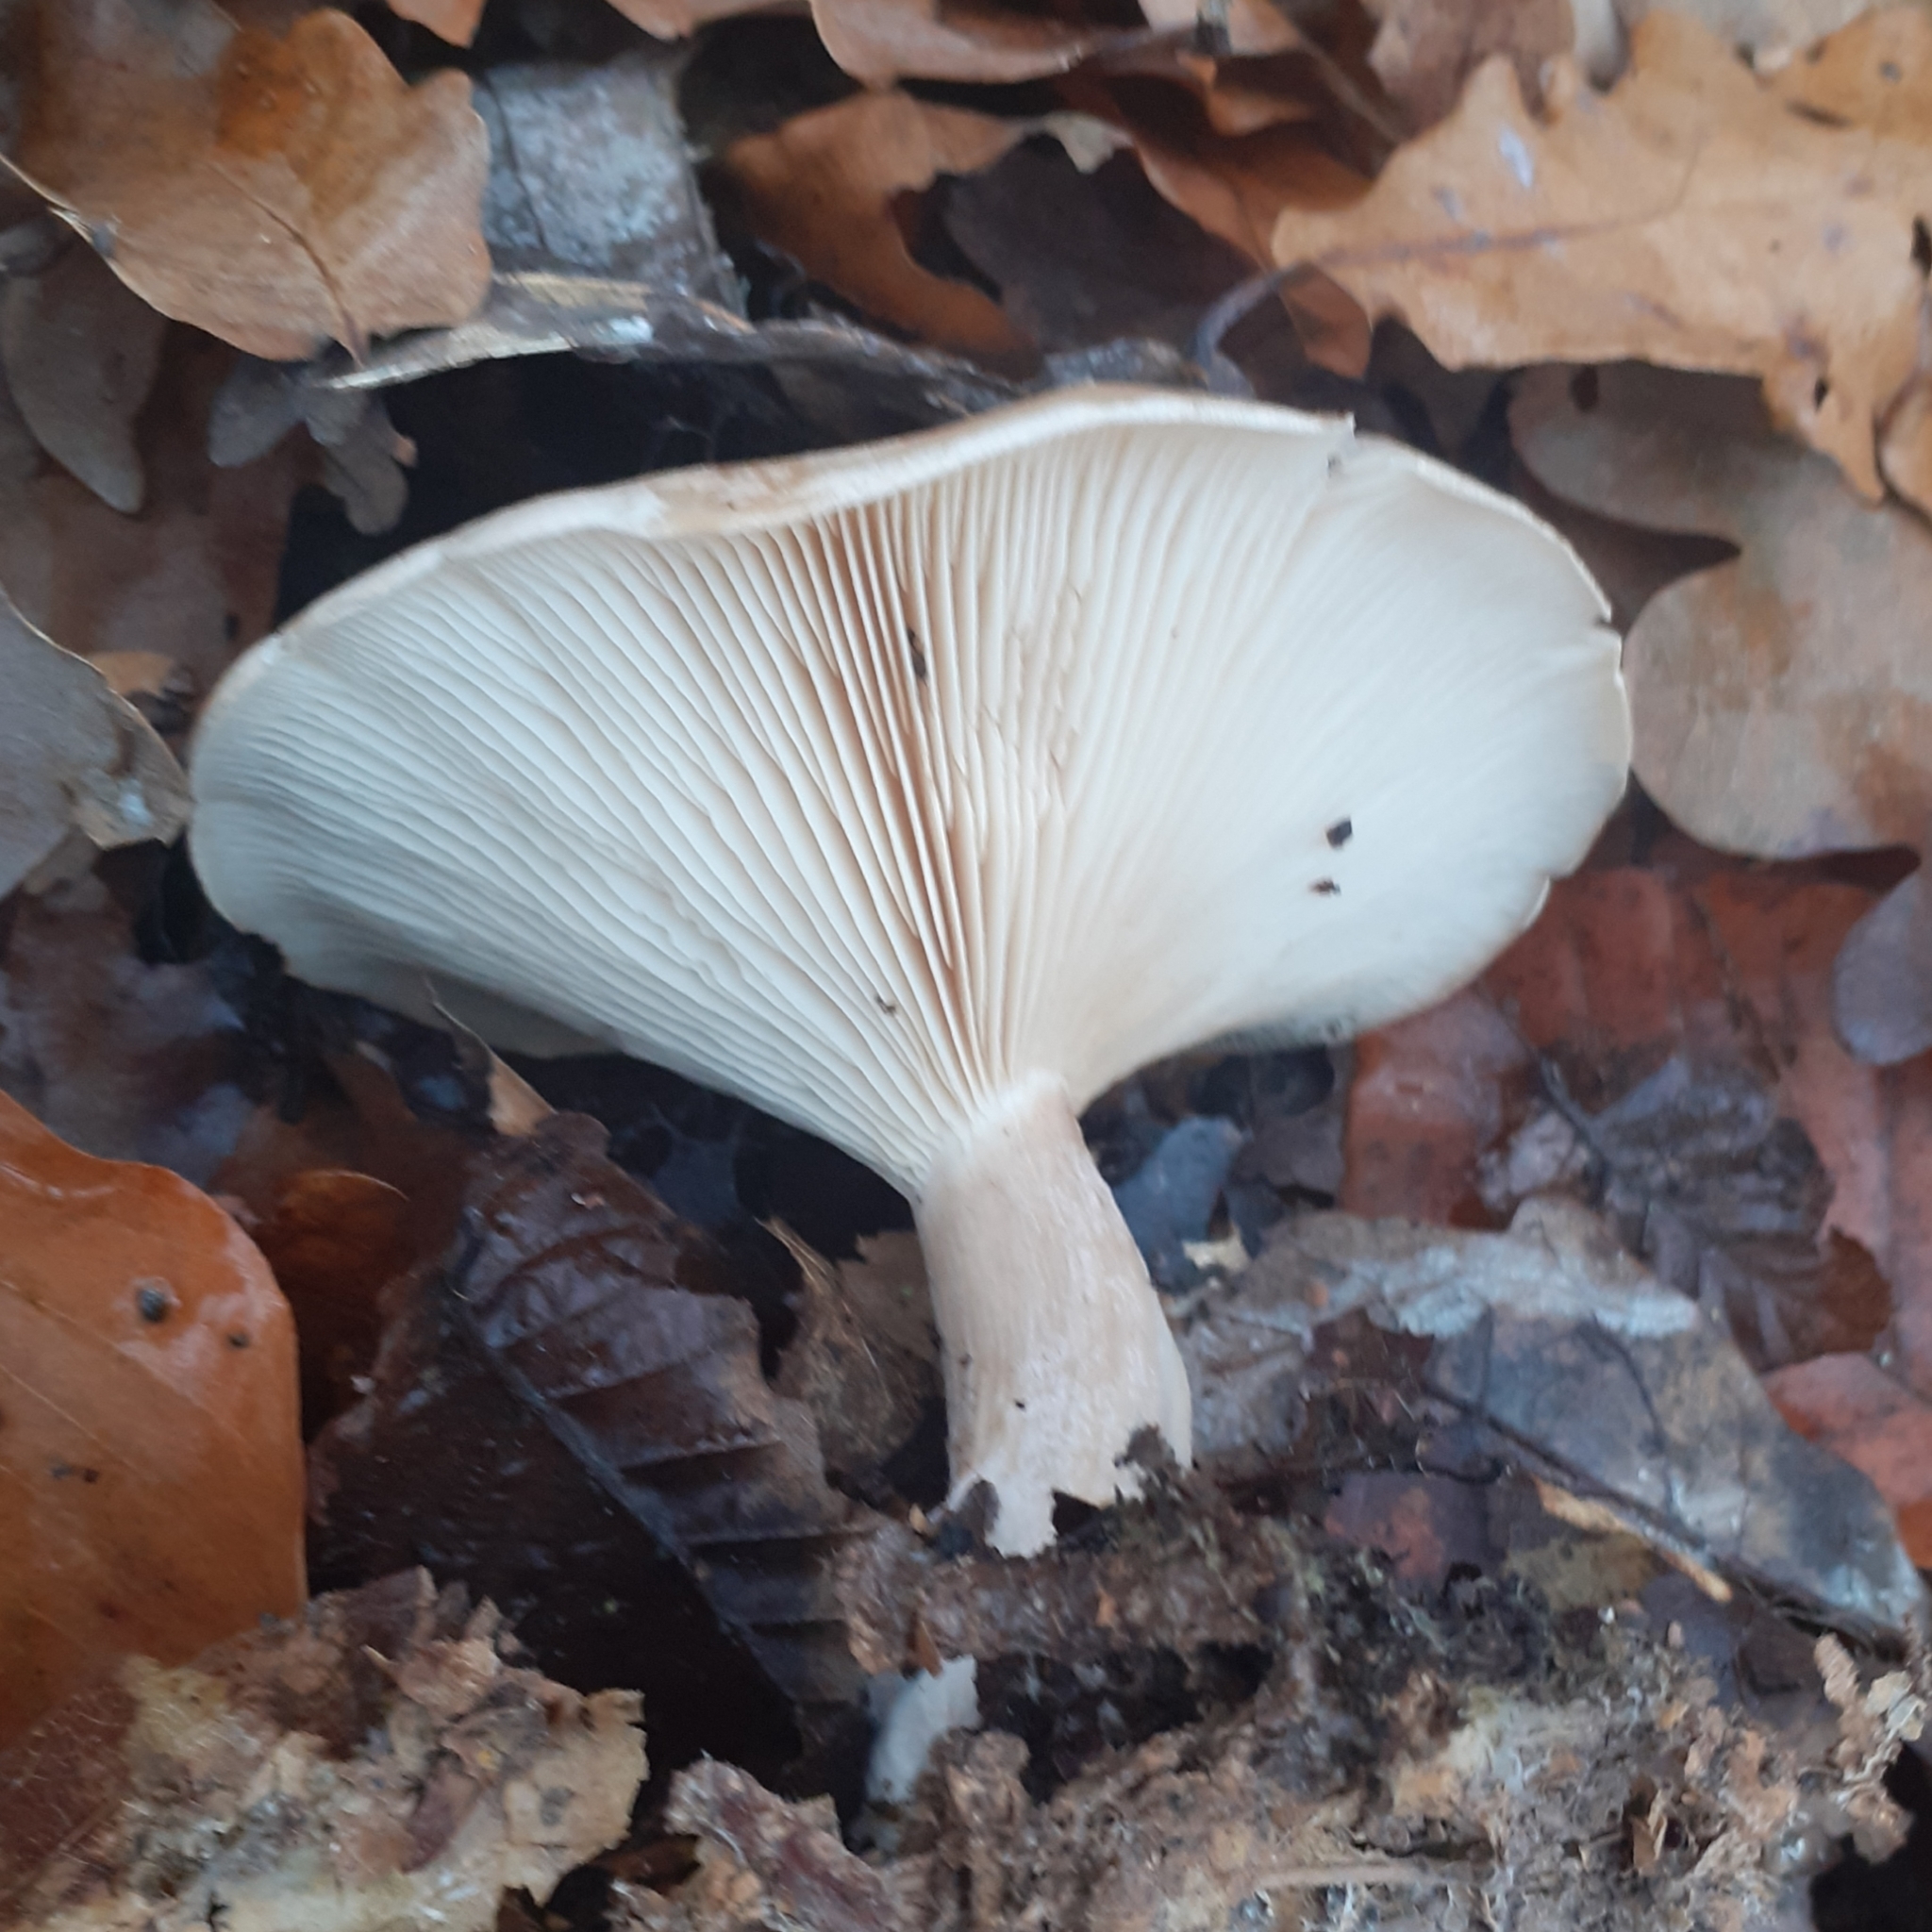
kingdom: Fungi
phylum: Basidiomycota
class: Agaricomycetes
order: Agaricales
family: Tricholomataceae
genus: Clitocybe
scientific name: Clitocybe nebularis
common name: Clouded agaric
